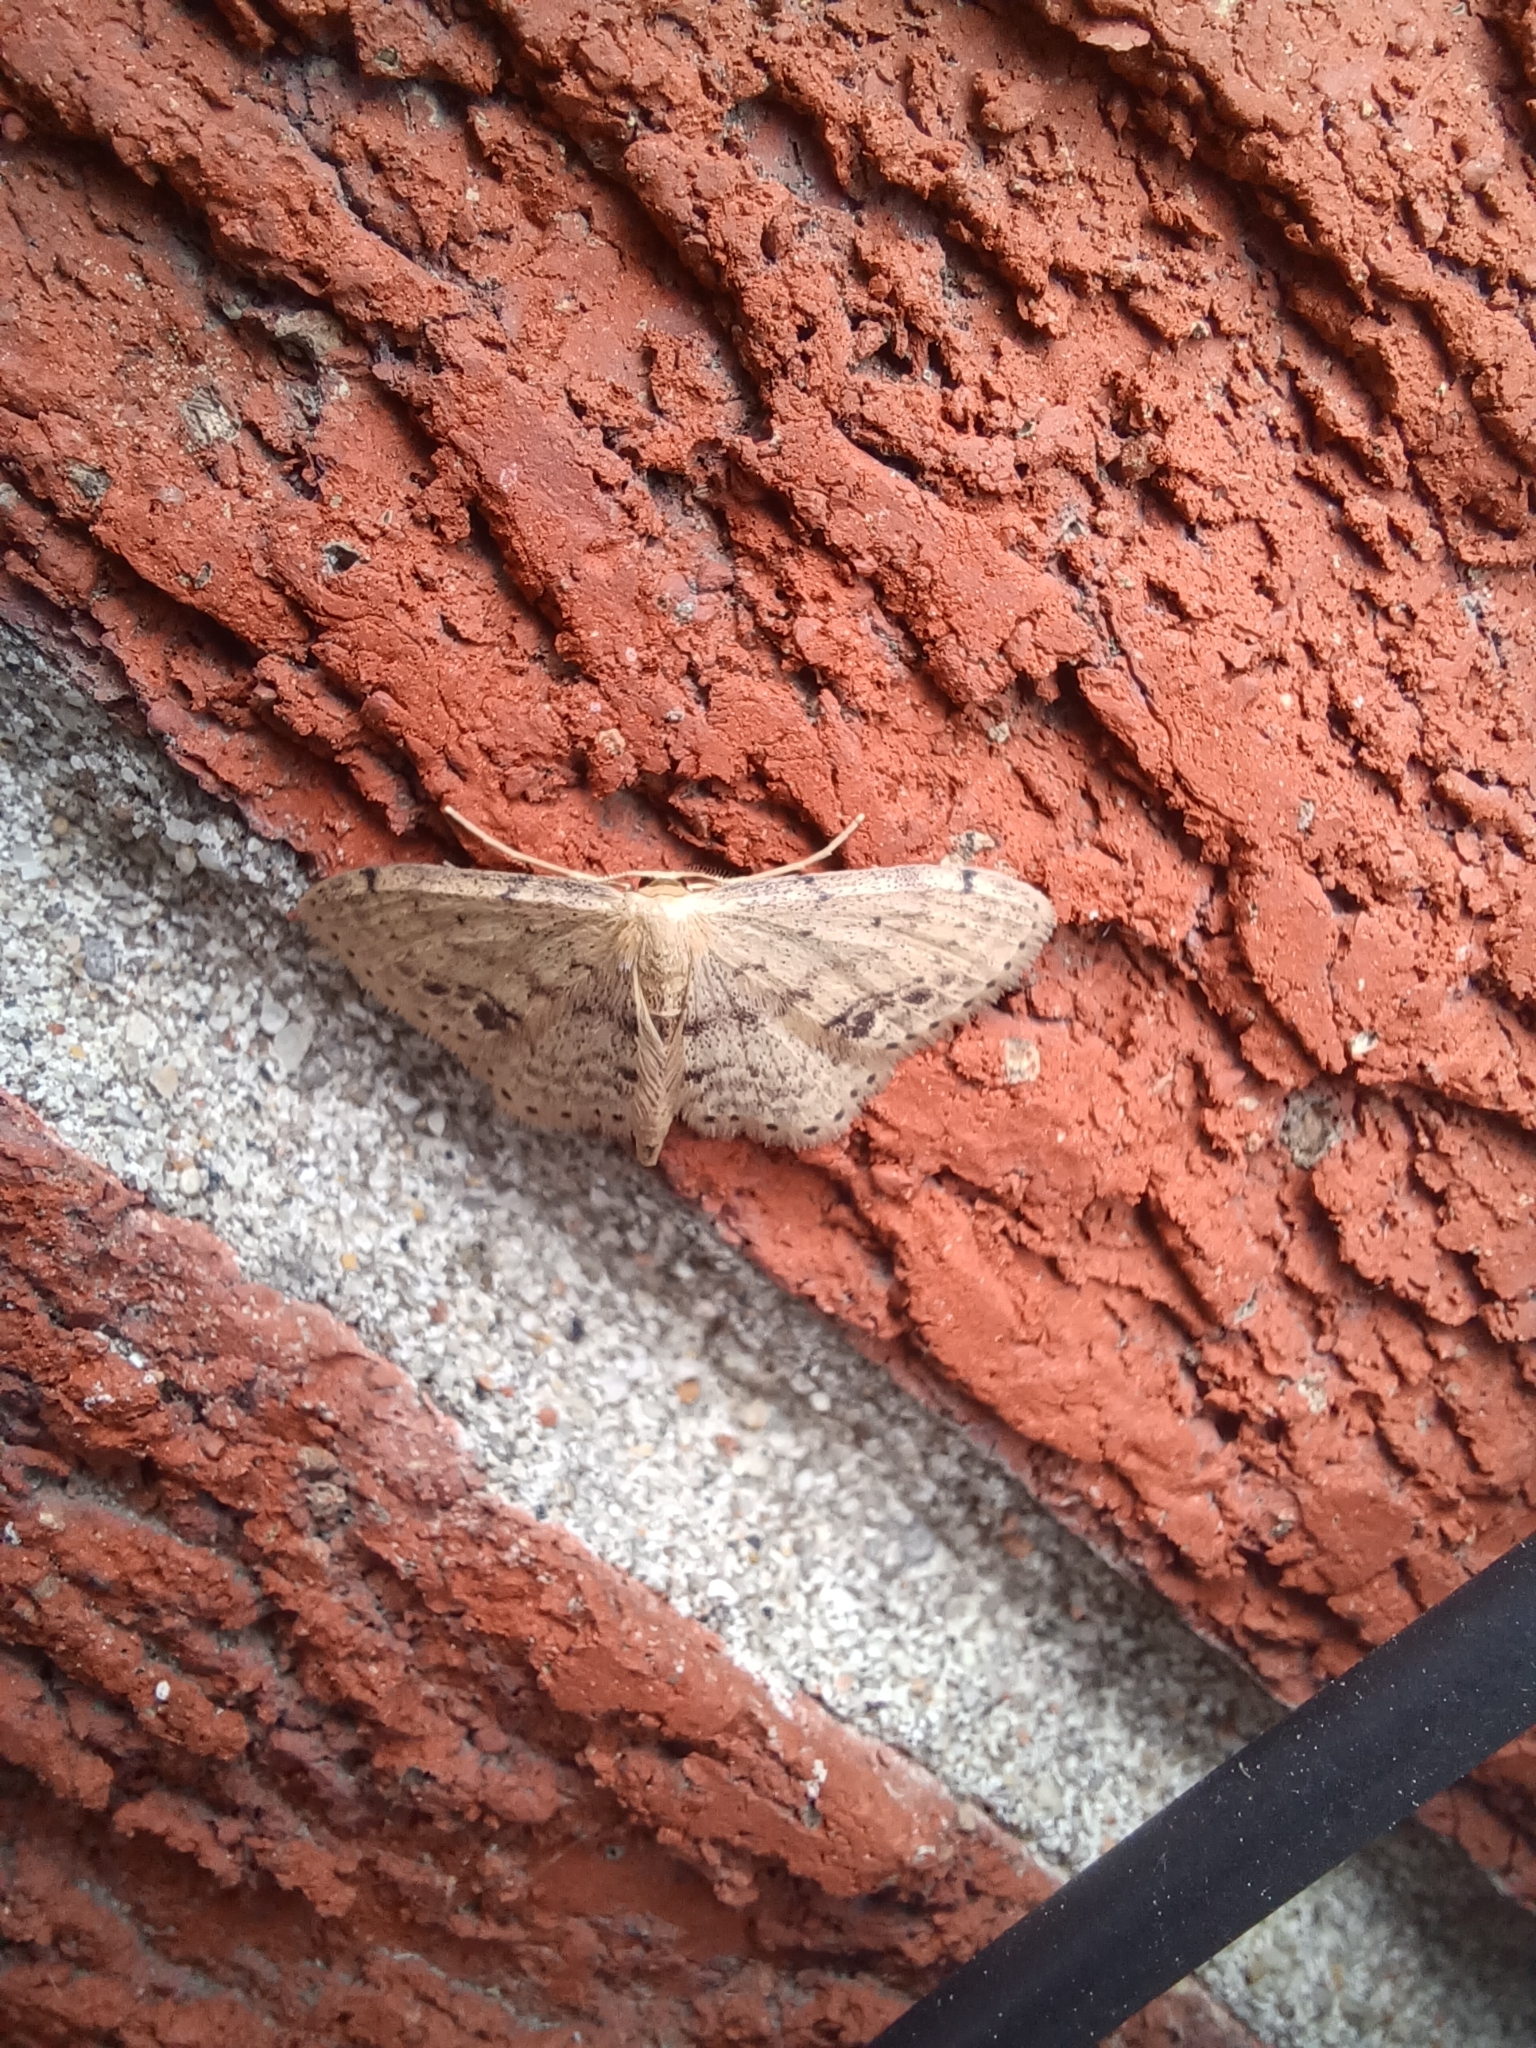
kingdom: Animalia
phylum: Arthropoda
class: Insecta
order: Lepidoptera
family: Geometridae
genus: Idaea
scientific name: Idaea dimidiata
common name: Single-dotted wave
